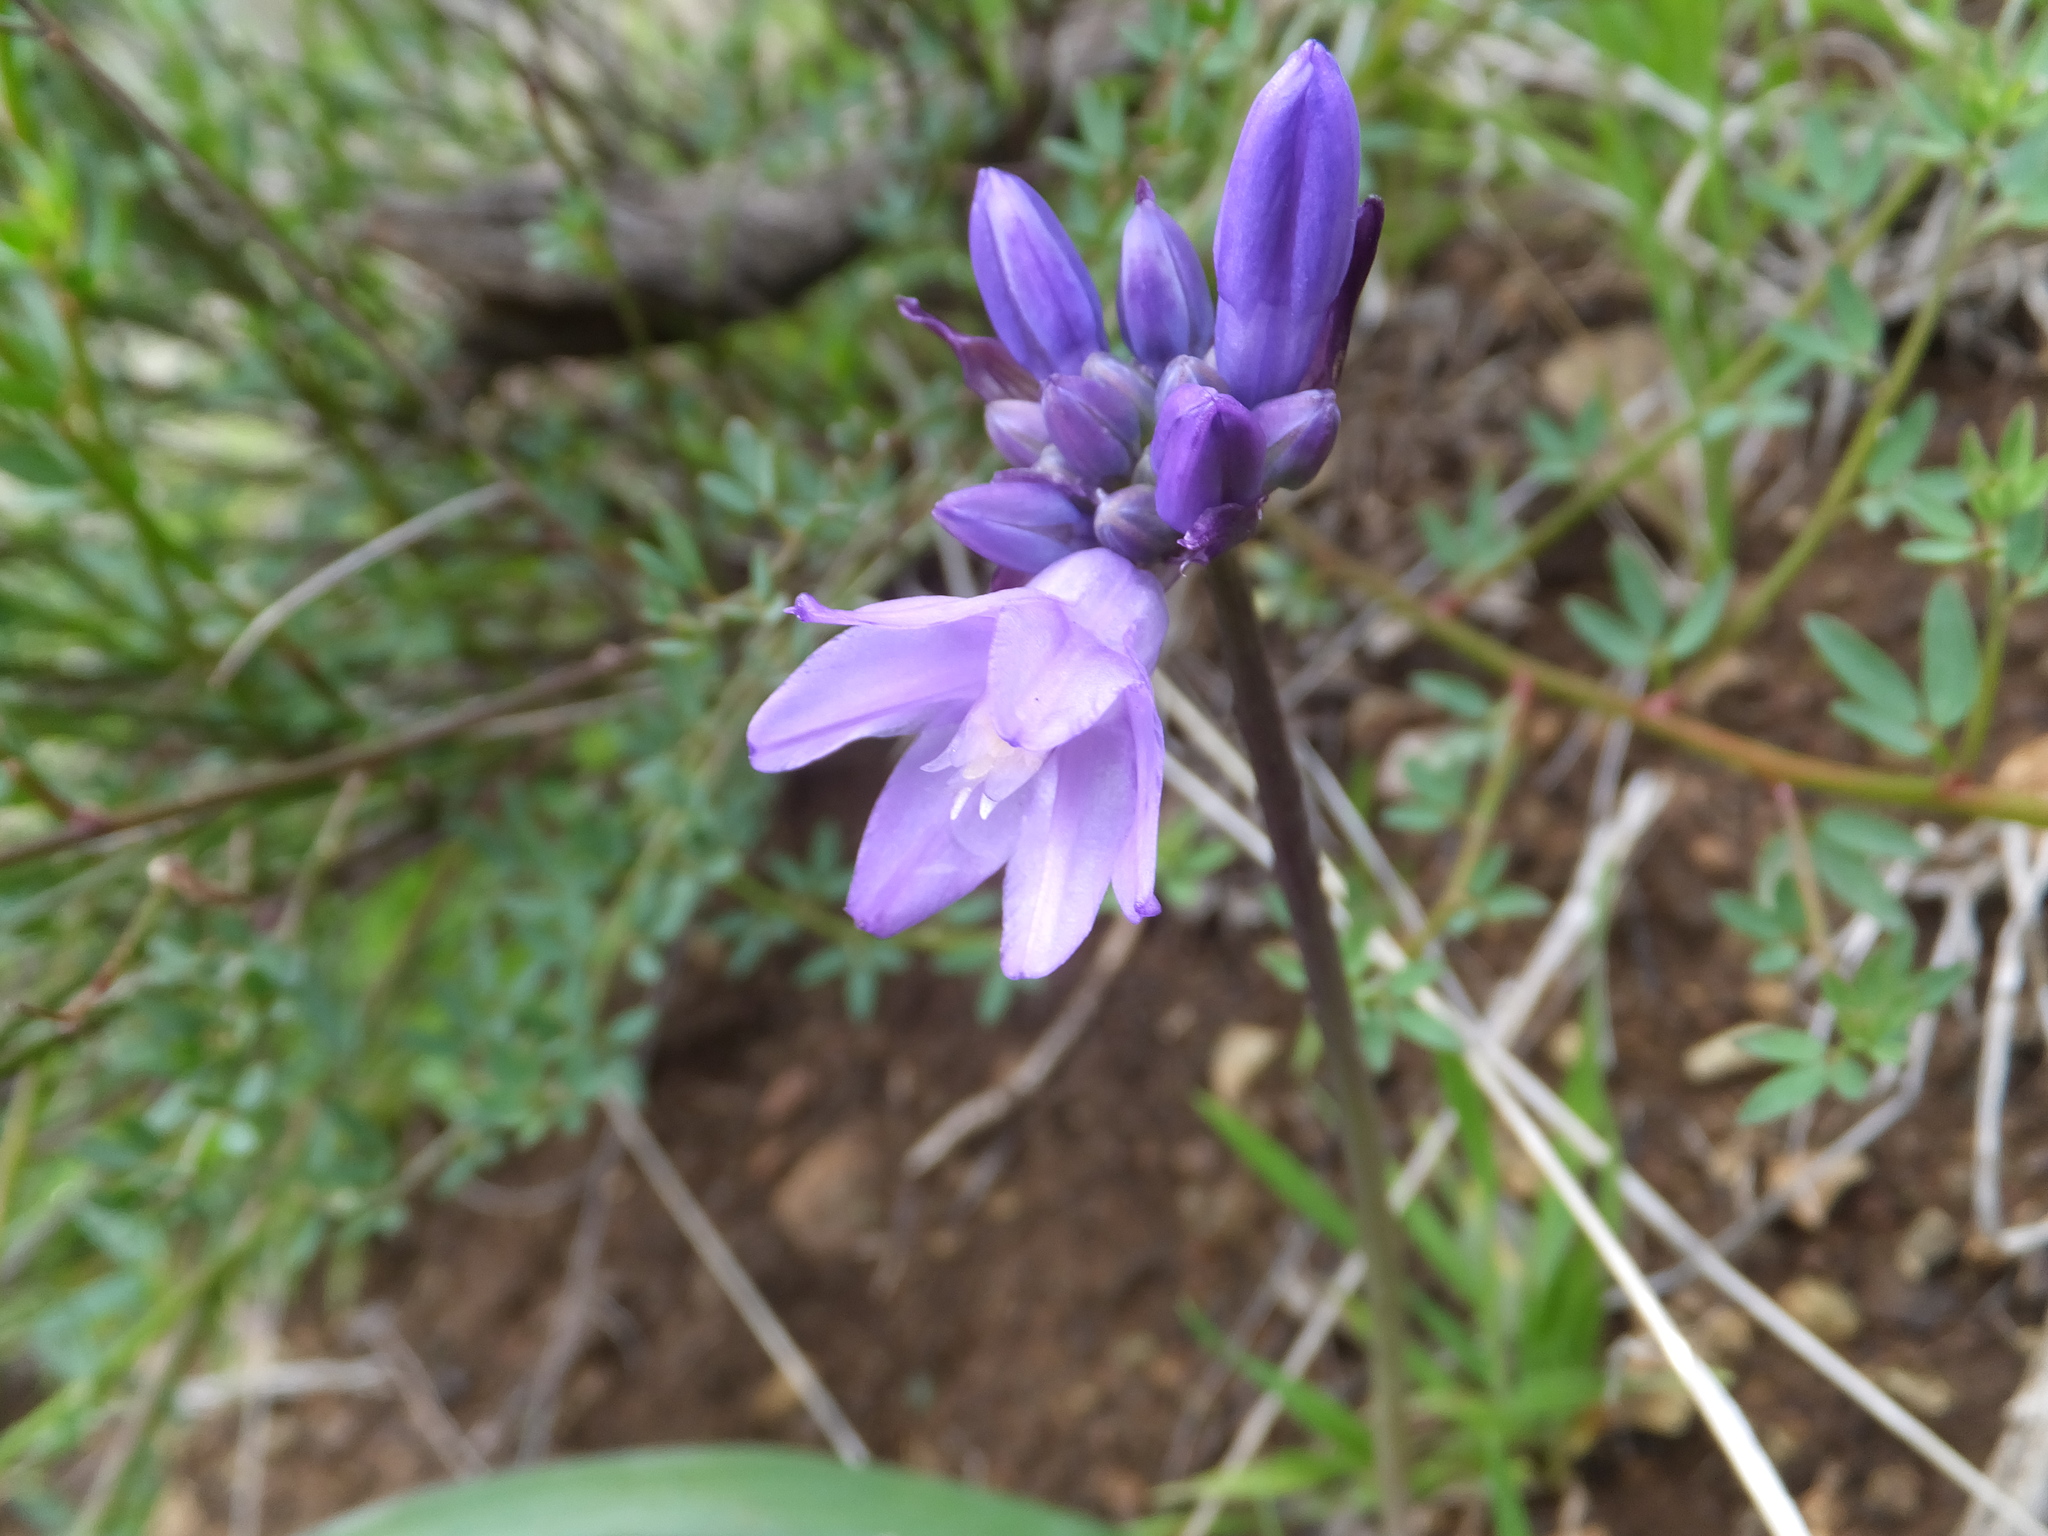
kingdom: Plantae
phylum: Tracheophyta
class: Liliopsida
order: Asparagales
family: Asparagaceae
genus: Dipterostemon
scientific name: Dipterostemon capitatus
